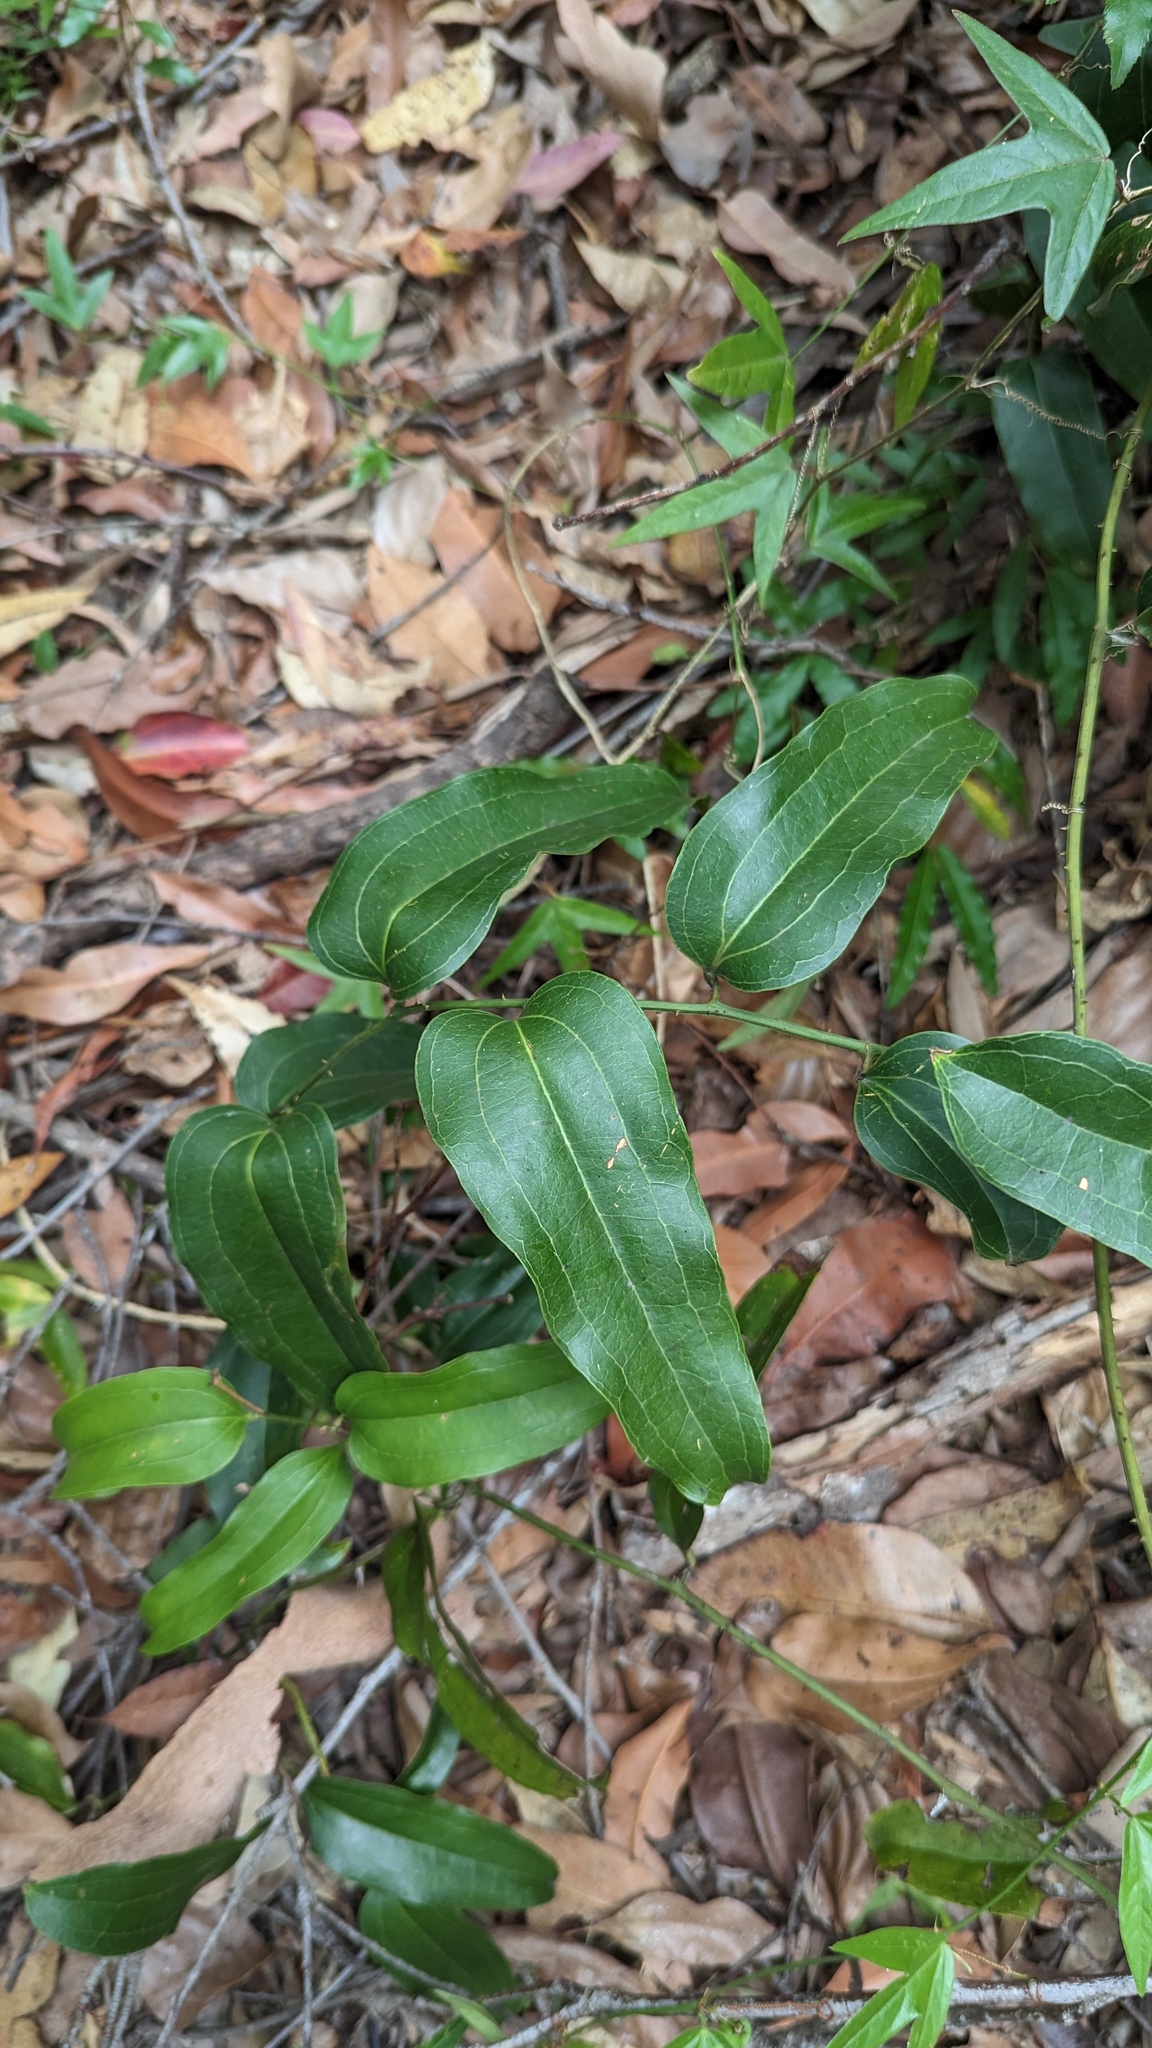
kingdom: Plantae
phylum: Tracheophyta
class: Liliopsida
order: Liliales
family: Smilacaceae
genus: Smilax
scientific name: Smilax australis
